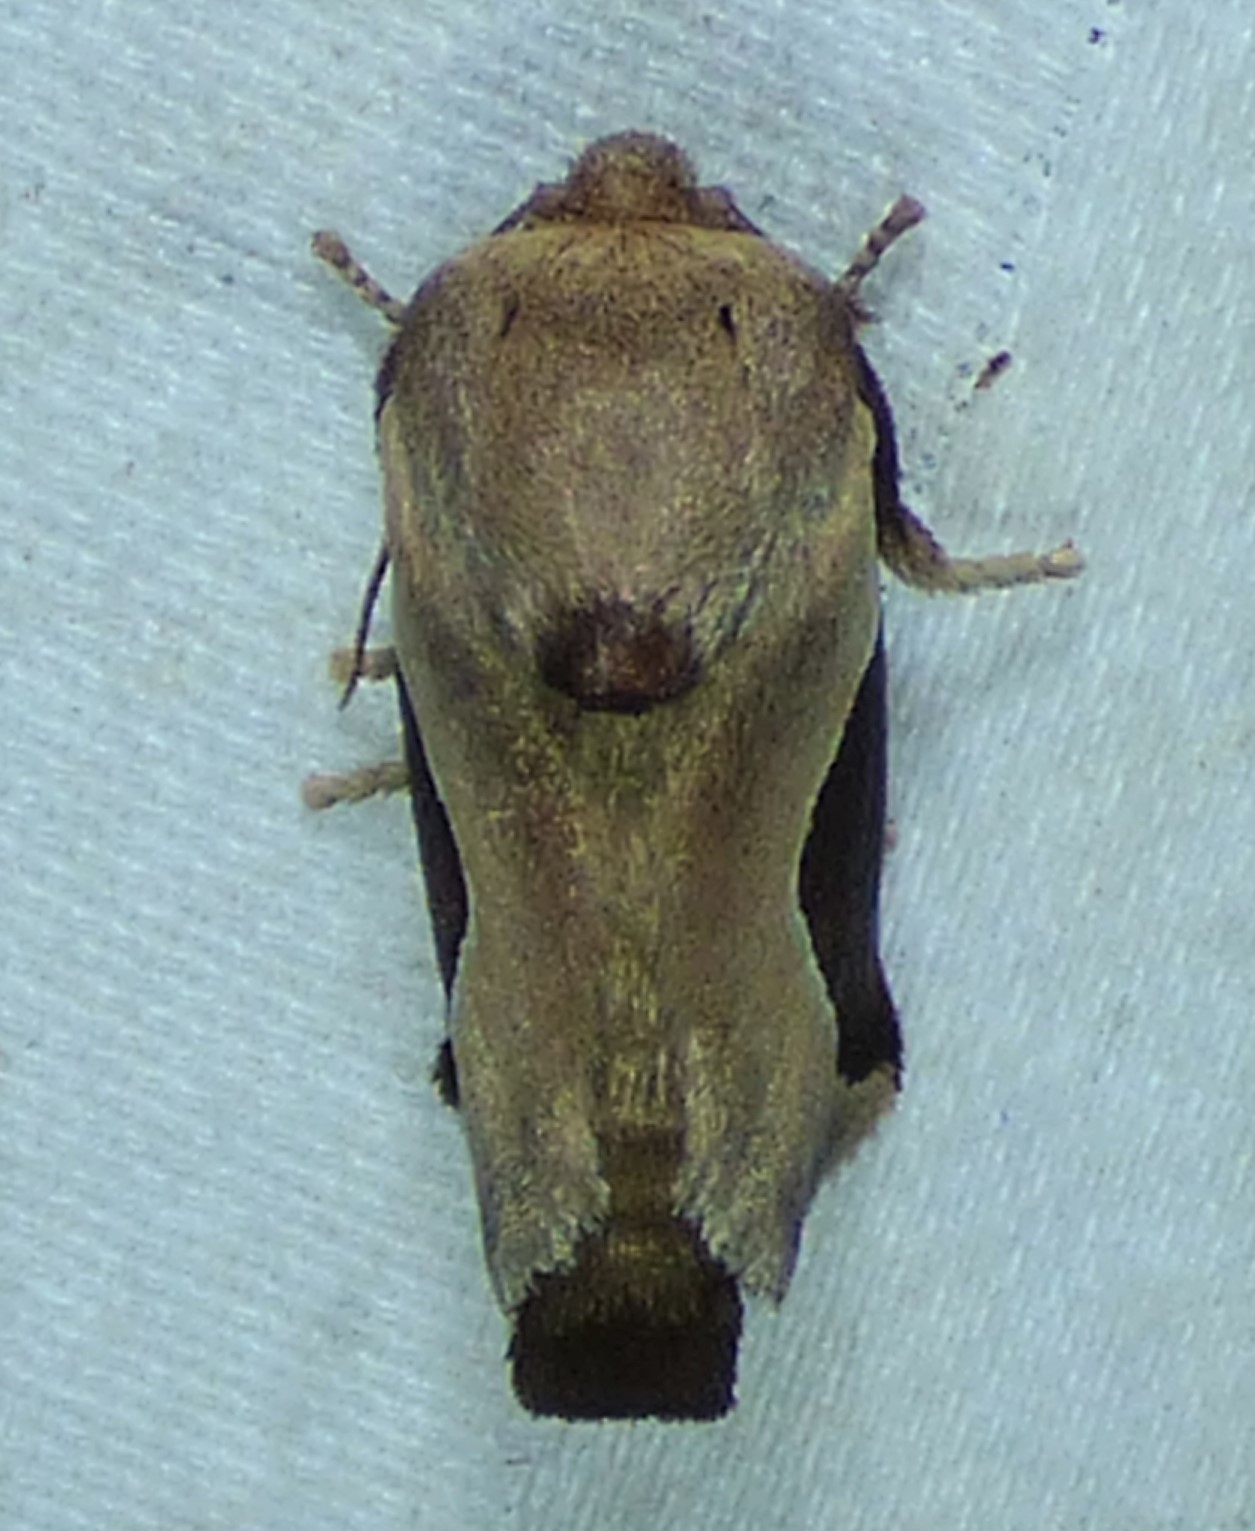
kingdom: Animalia
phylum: Arthropoda
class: Insecta
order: Lepidoptera
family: Limacodidae
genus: Prolimacodes
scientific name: Prolimacodes badia
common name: Skiff moth
